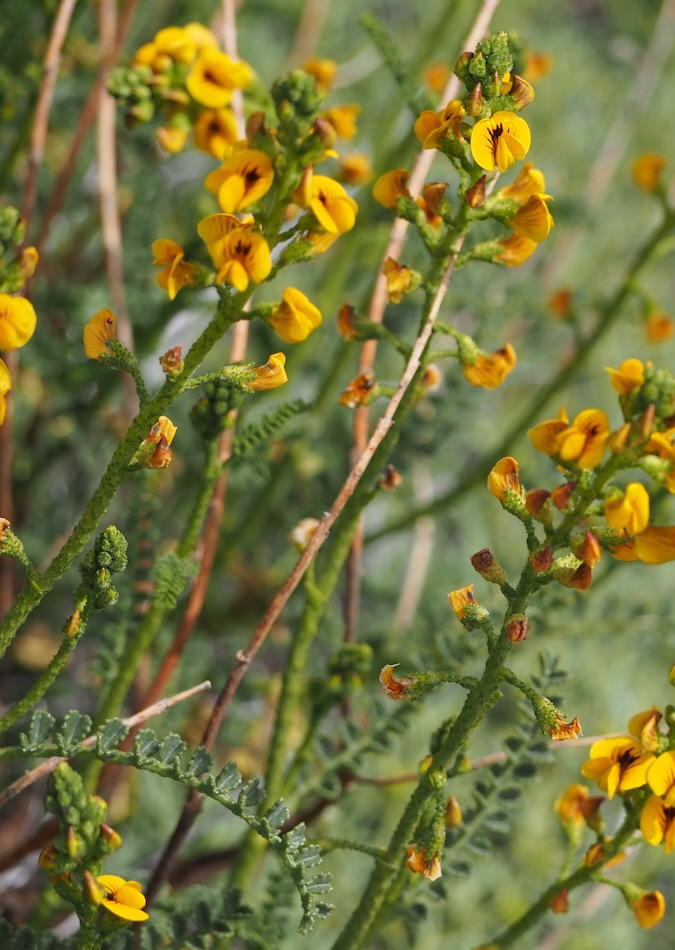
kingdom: Plantae
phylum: Tracheophyta
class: Magnoliopsida
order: Fabales
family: Fabaceae
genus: Adesmia
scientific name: Adesmia boronioides
